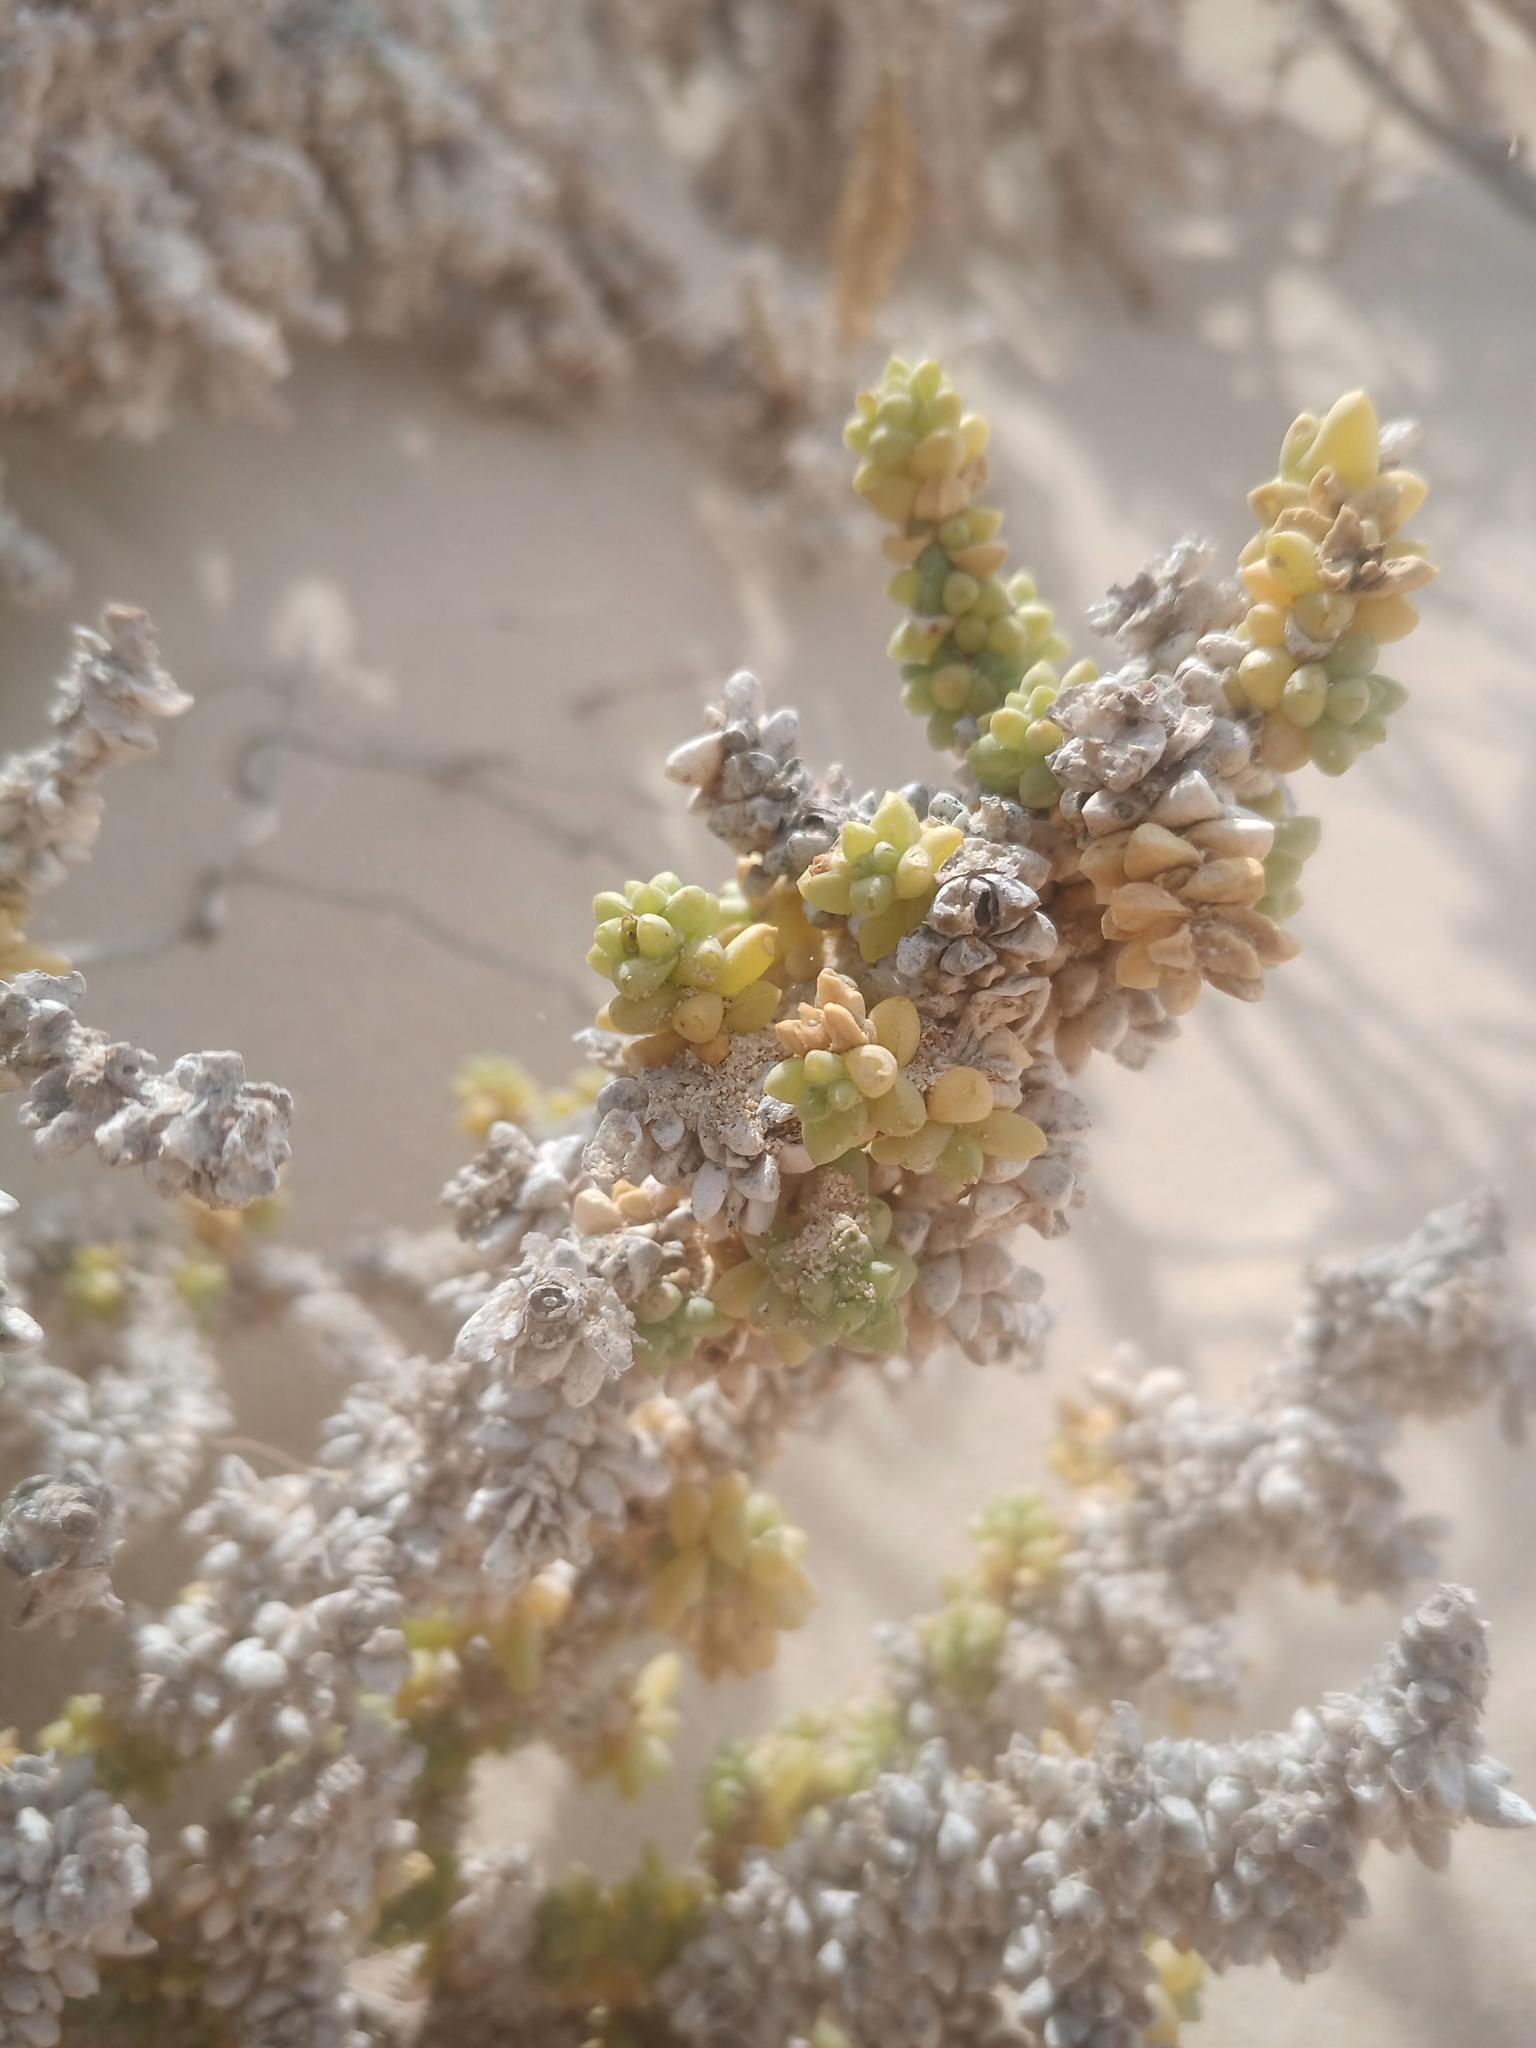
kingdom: Plantae
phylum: Tracheophyta
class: Magnoliopsida
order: Caryophyllales
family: Amaranthaceae
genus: Traganum
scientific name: Traganum moquinii
